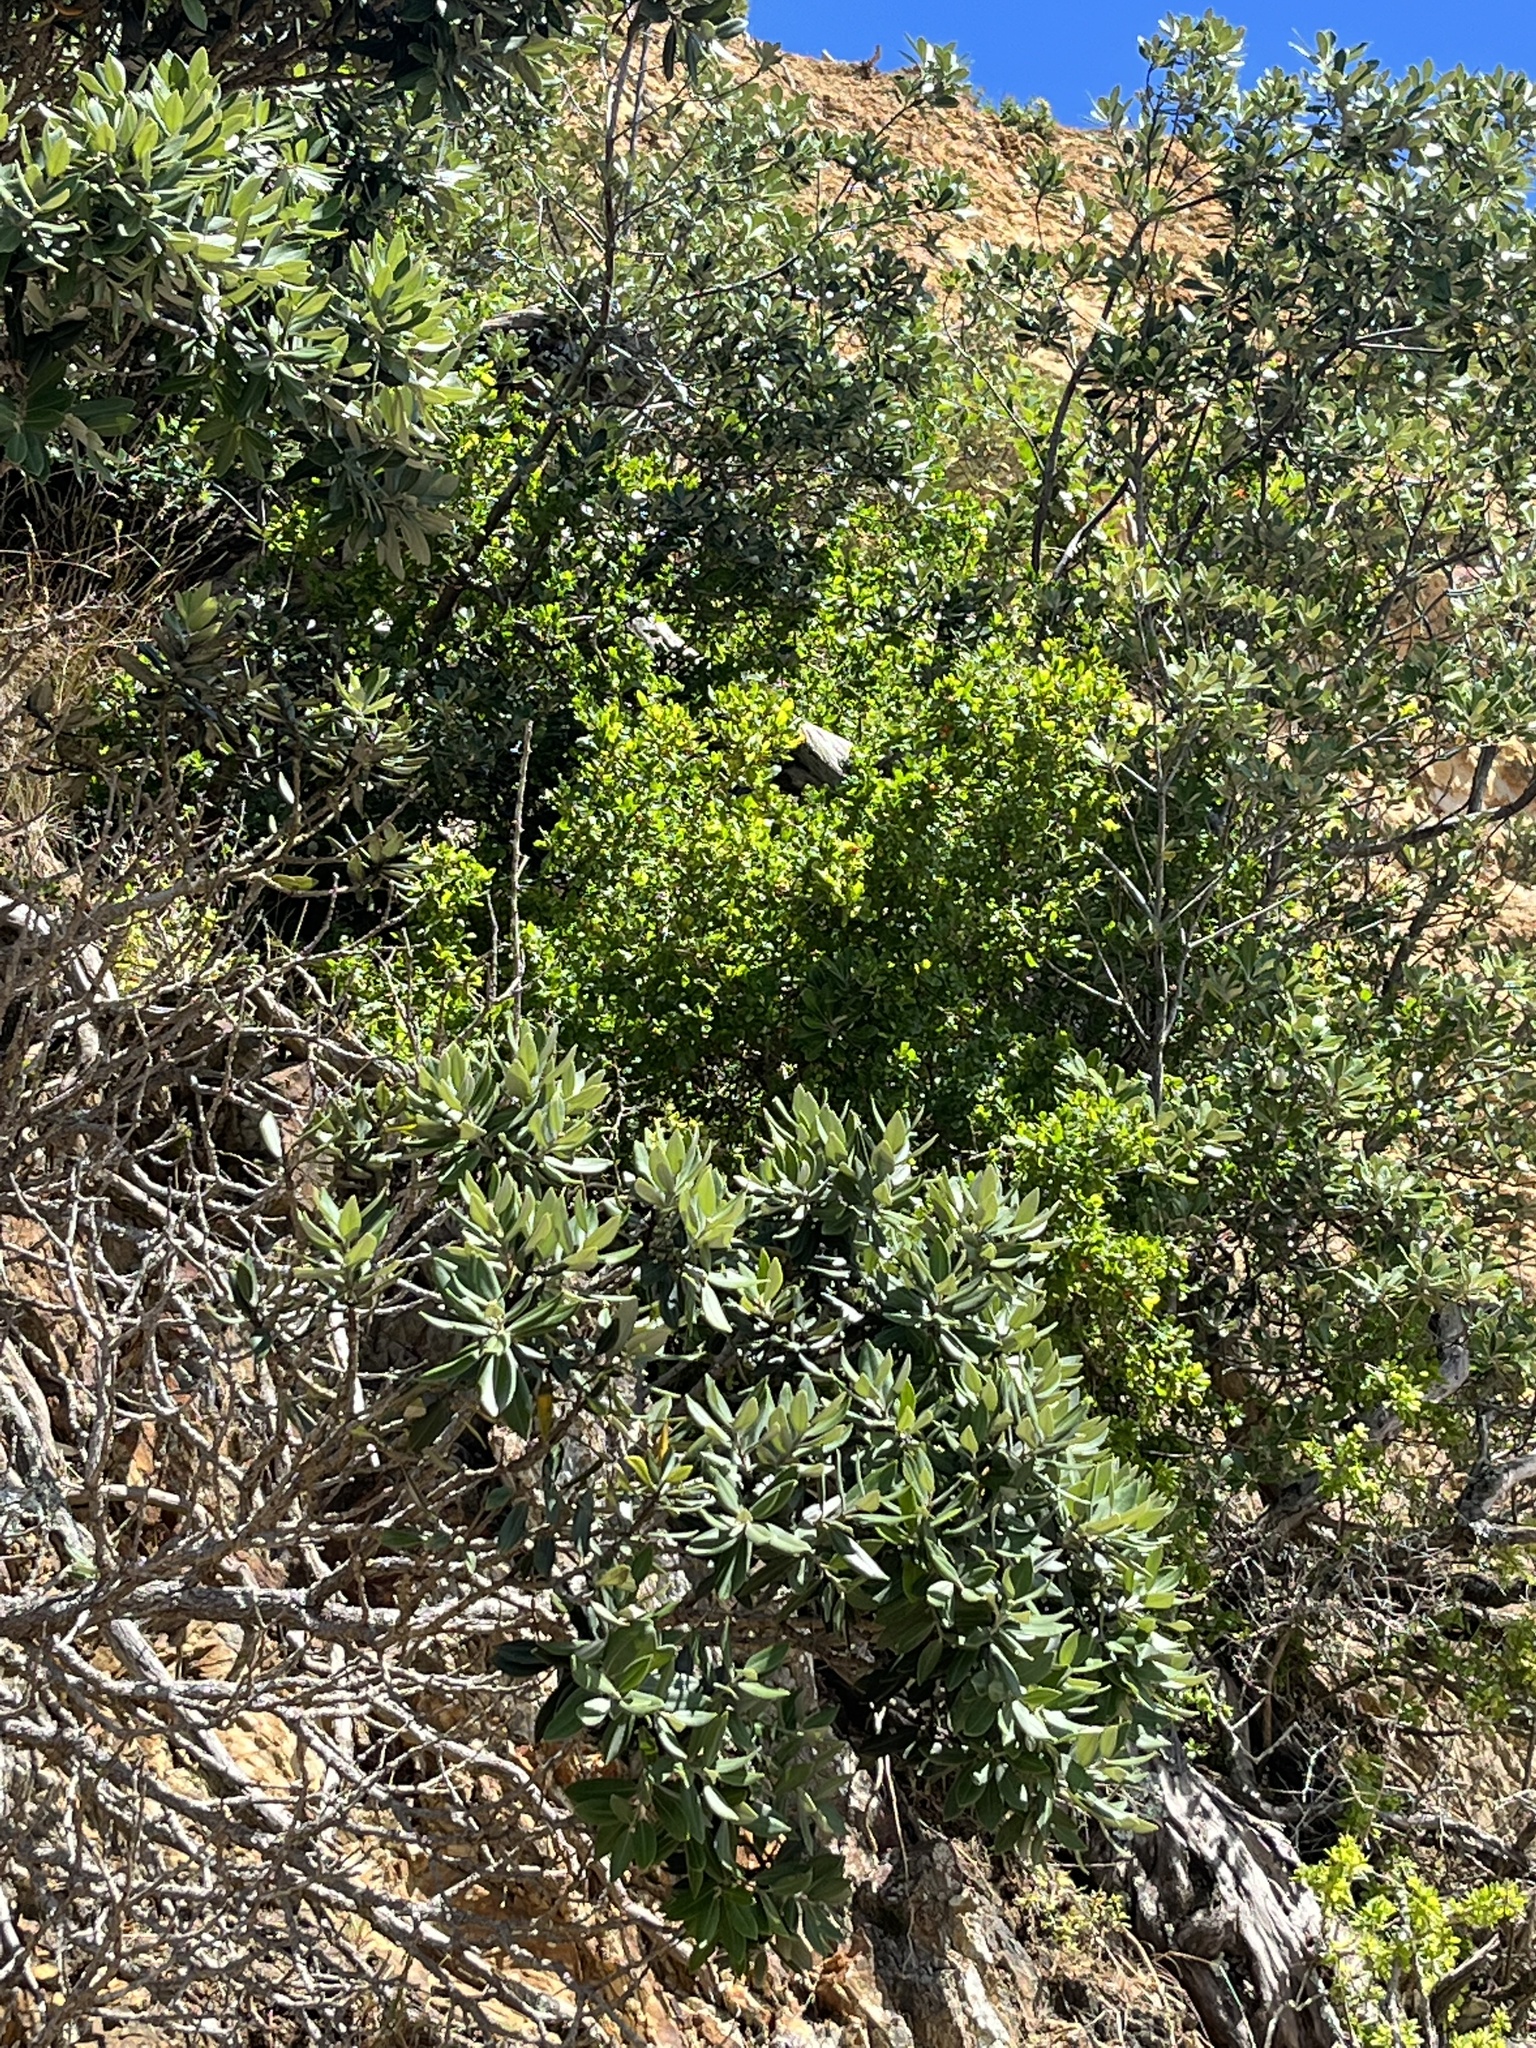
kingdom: Plantae
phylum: Tracheophyta
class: Magnoliopsida
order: Solanales
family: Solanaceae
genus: Lycium
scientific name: Lycium ferocissimum
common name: African boxthorn
